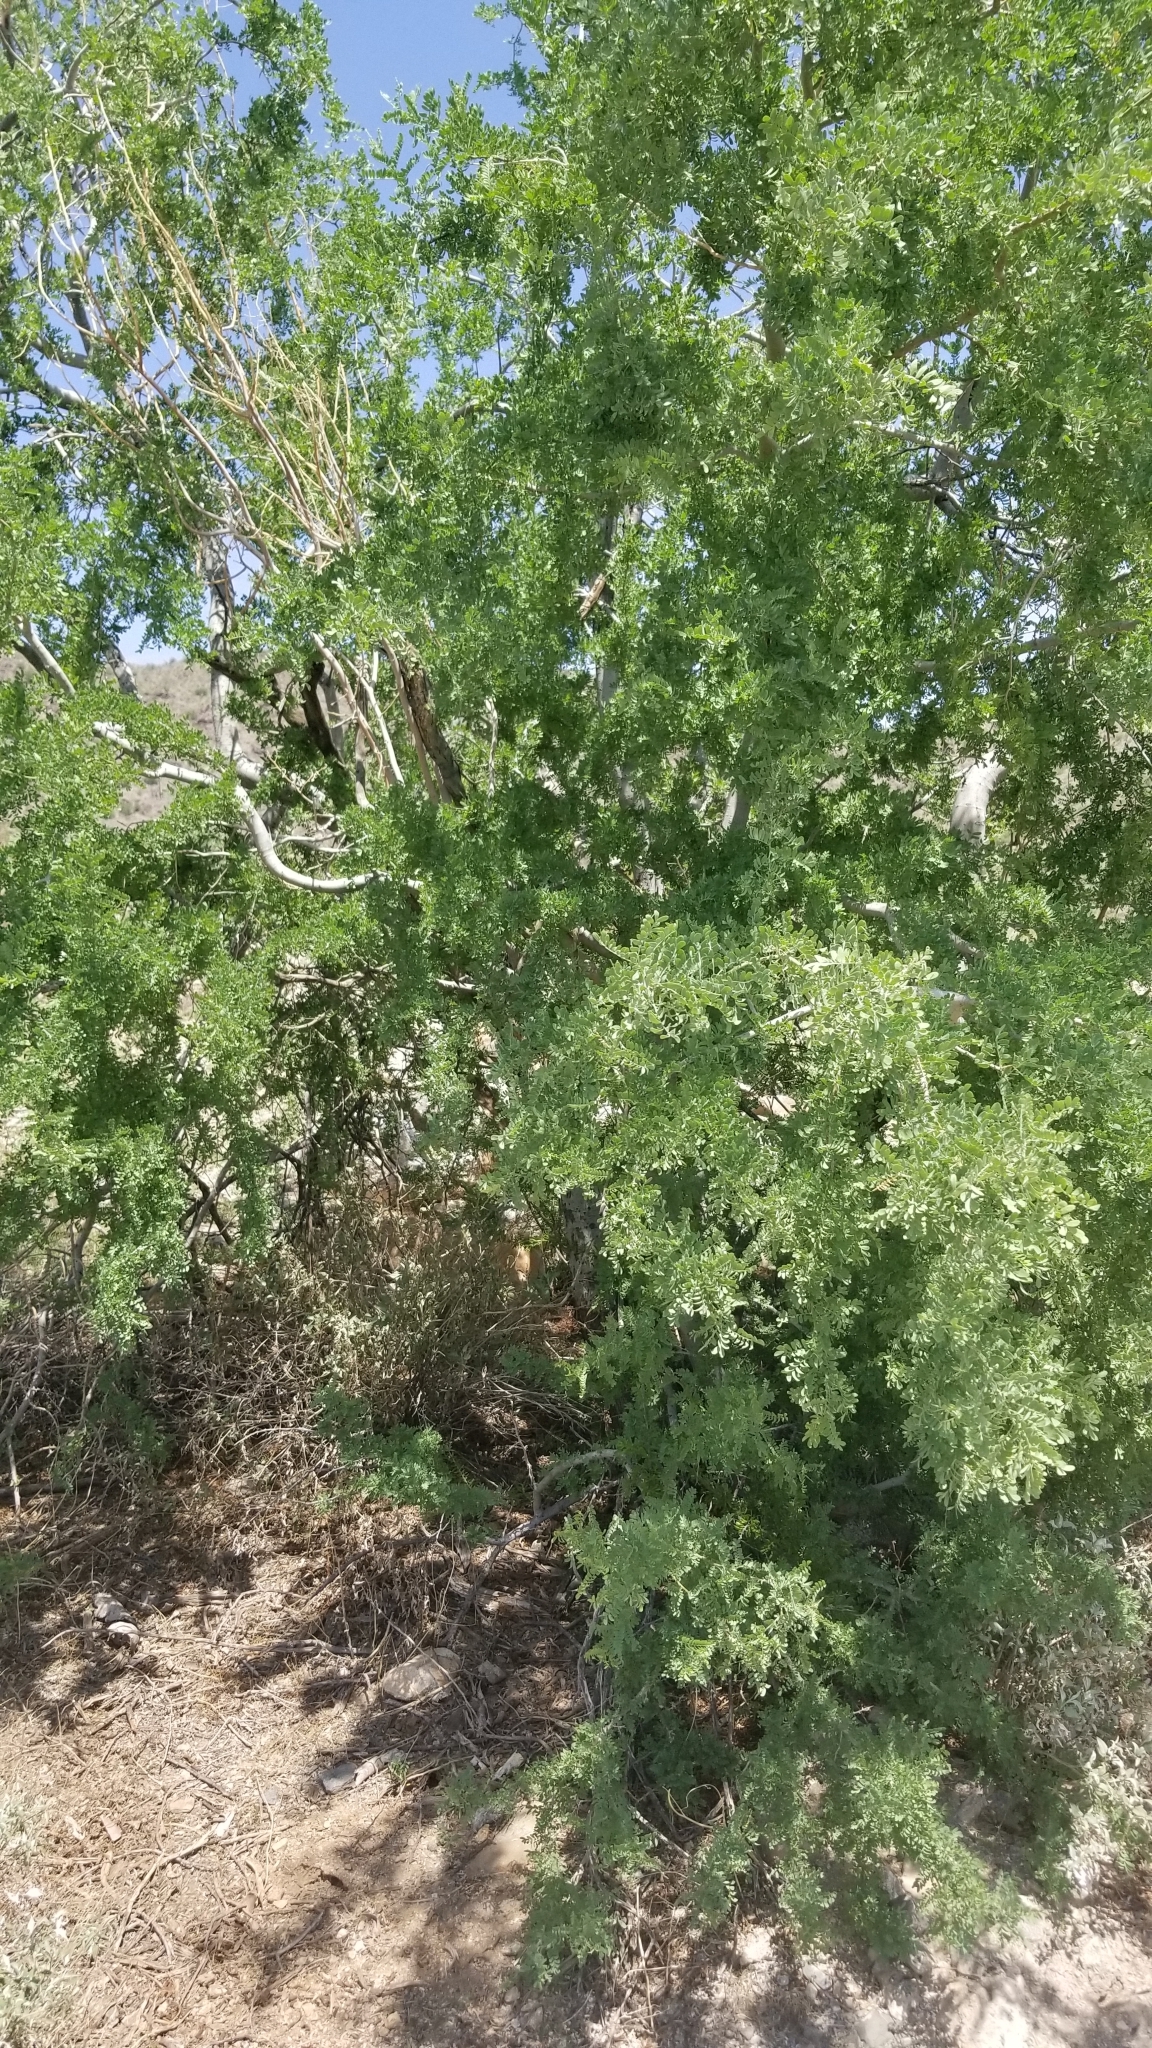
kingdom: Plantae
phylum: Tracheophyta
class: Magnoliopsida
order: Fabales
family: Fabaceae
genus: Olneya
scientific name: Olneya tesota
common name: Desert ironwood
